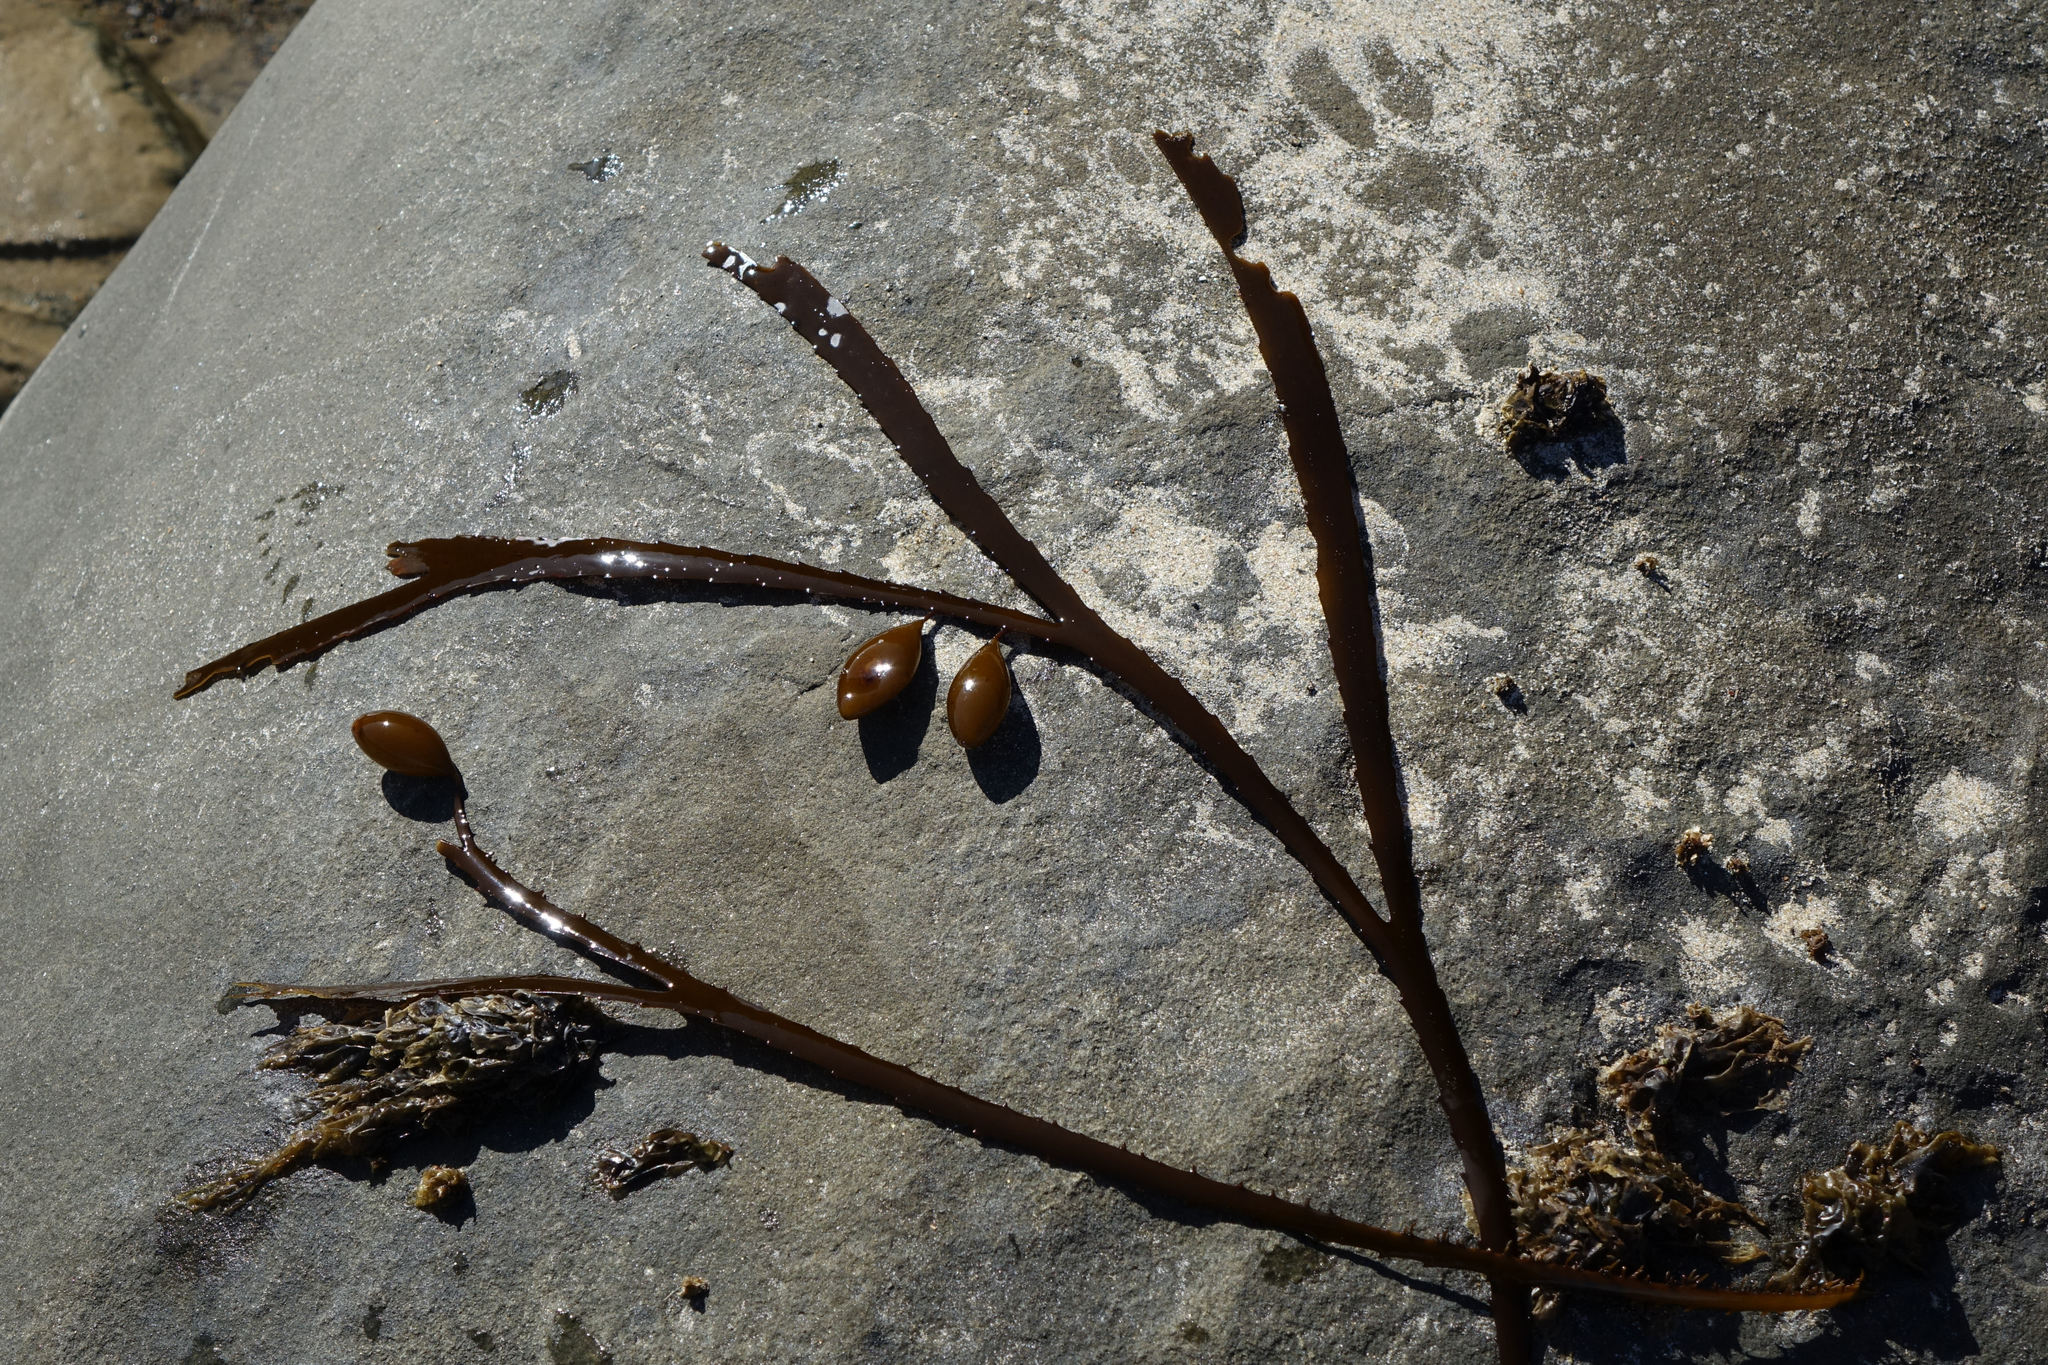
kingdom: Chromista
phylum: Ochrophyta
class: Phaeophyceae
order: Fucales
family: Seirococcaceae
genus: Marginariella
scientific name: Marginariella boryana
